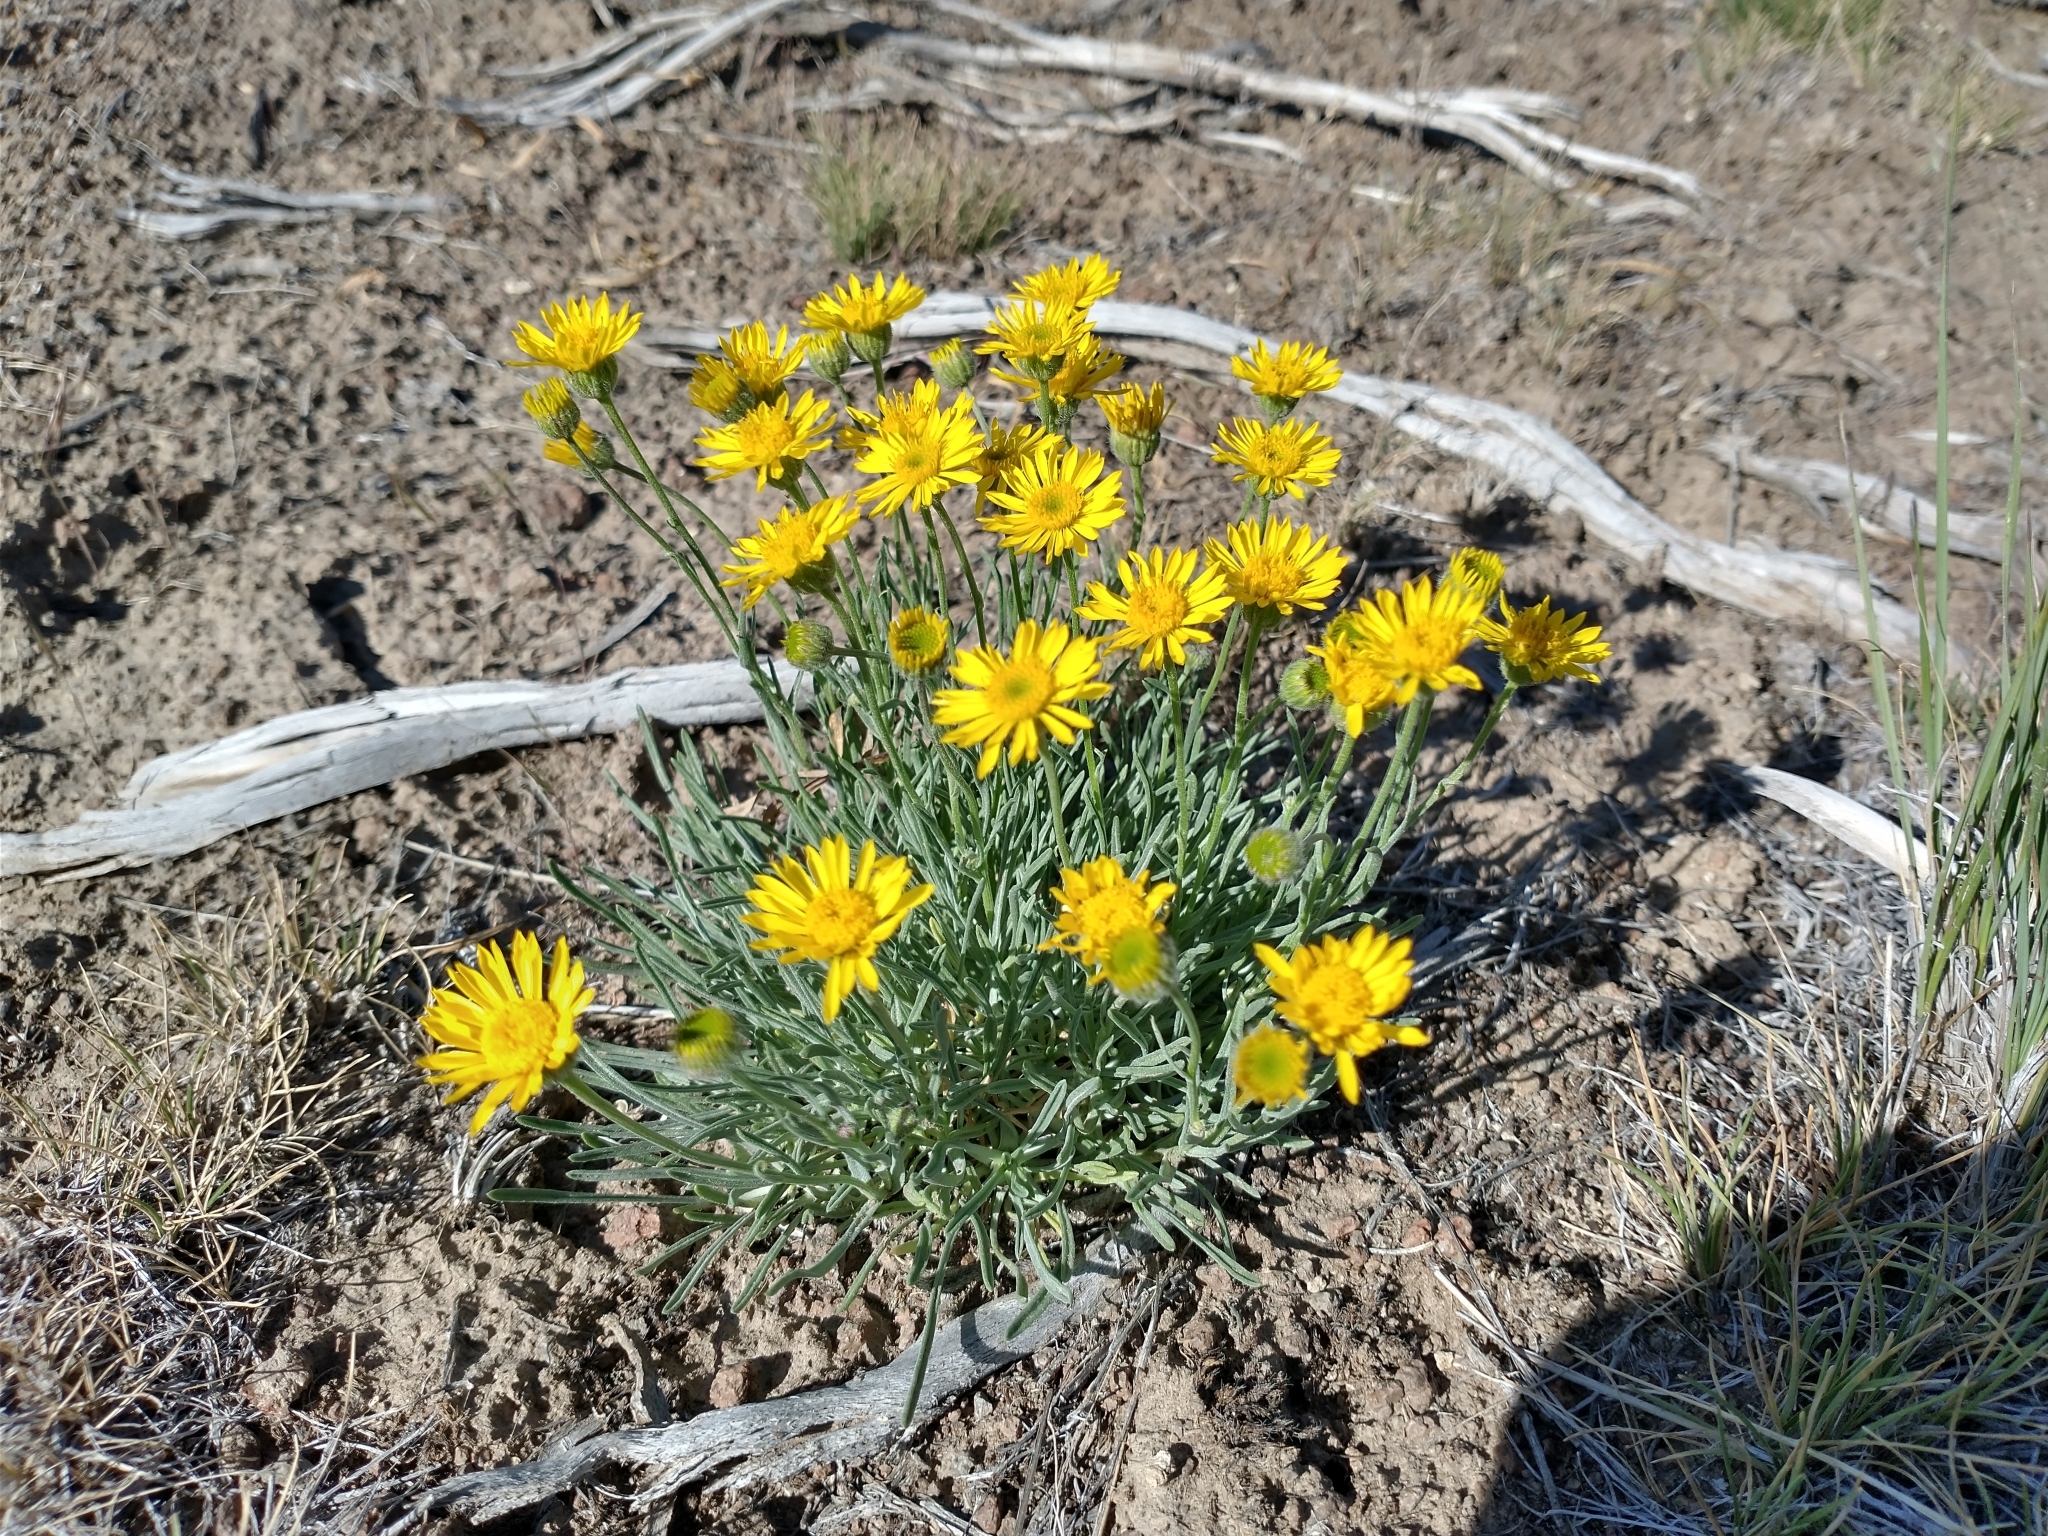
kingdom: Plantae
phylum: Tracheophyta
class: Magnoliopsida
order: Asterales
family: Asteraceae
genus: Erigeron
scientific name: Erigeron linearis
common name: Desert yellow fleabane
